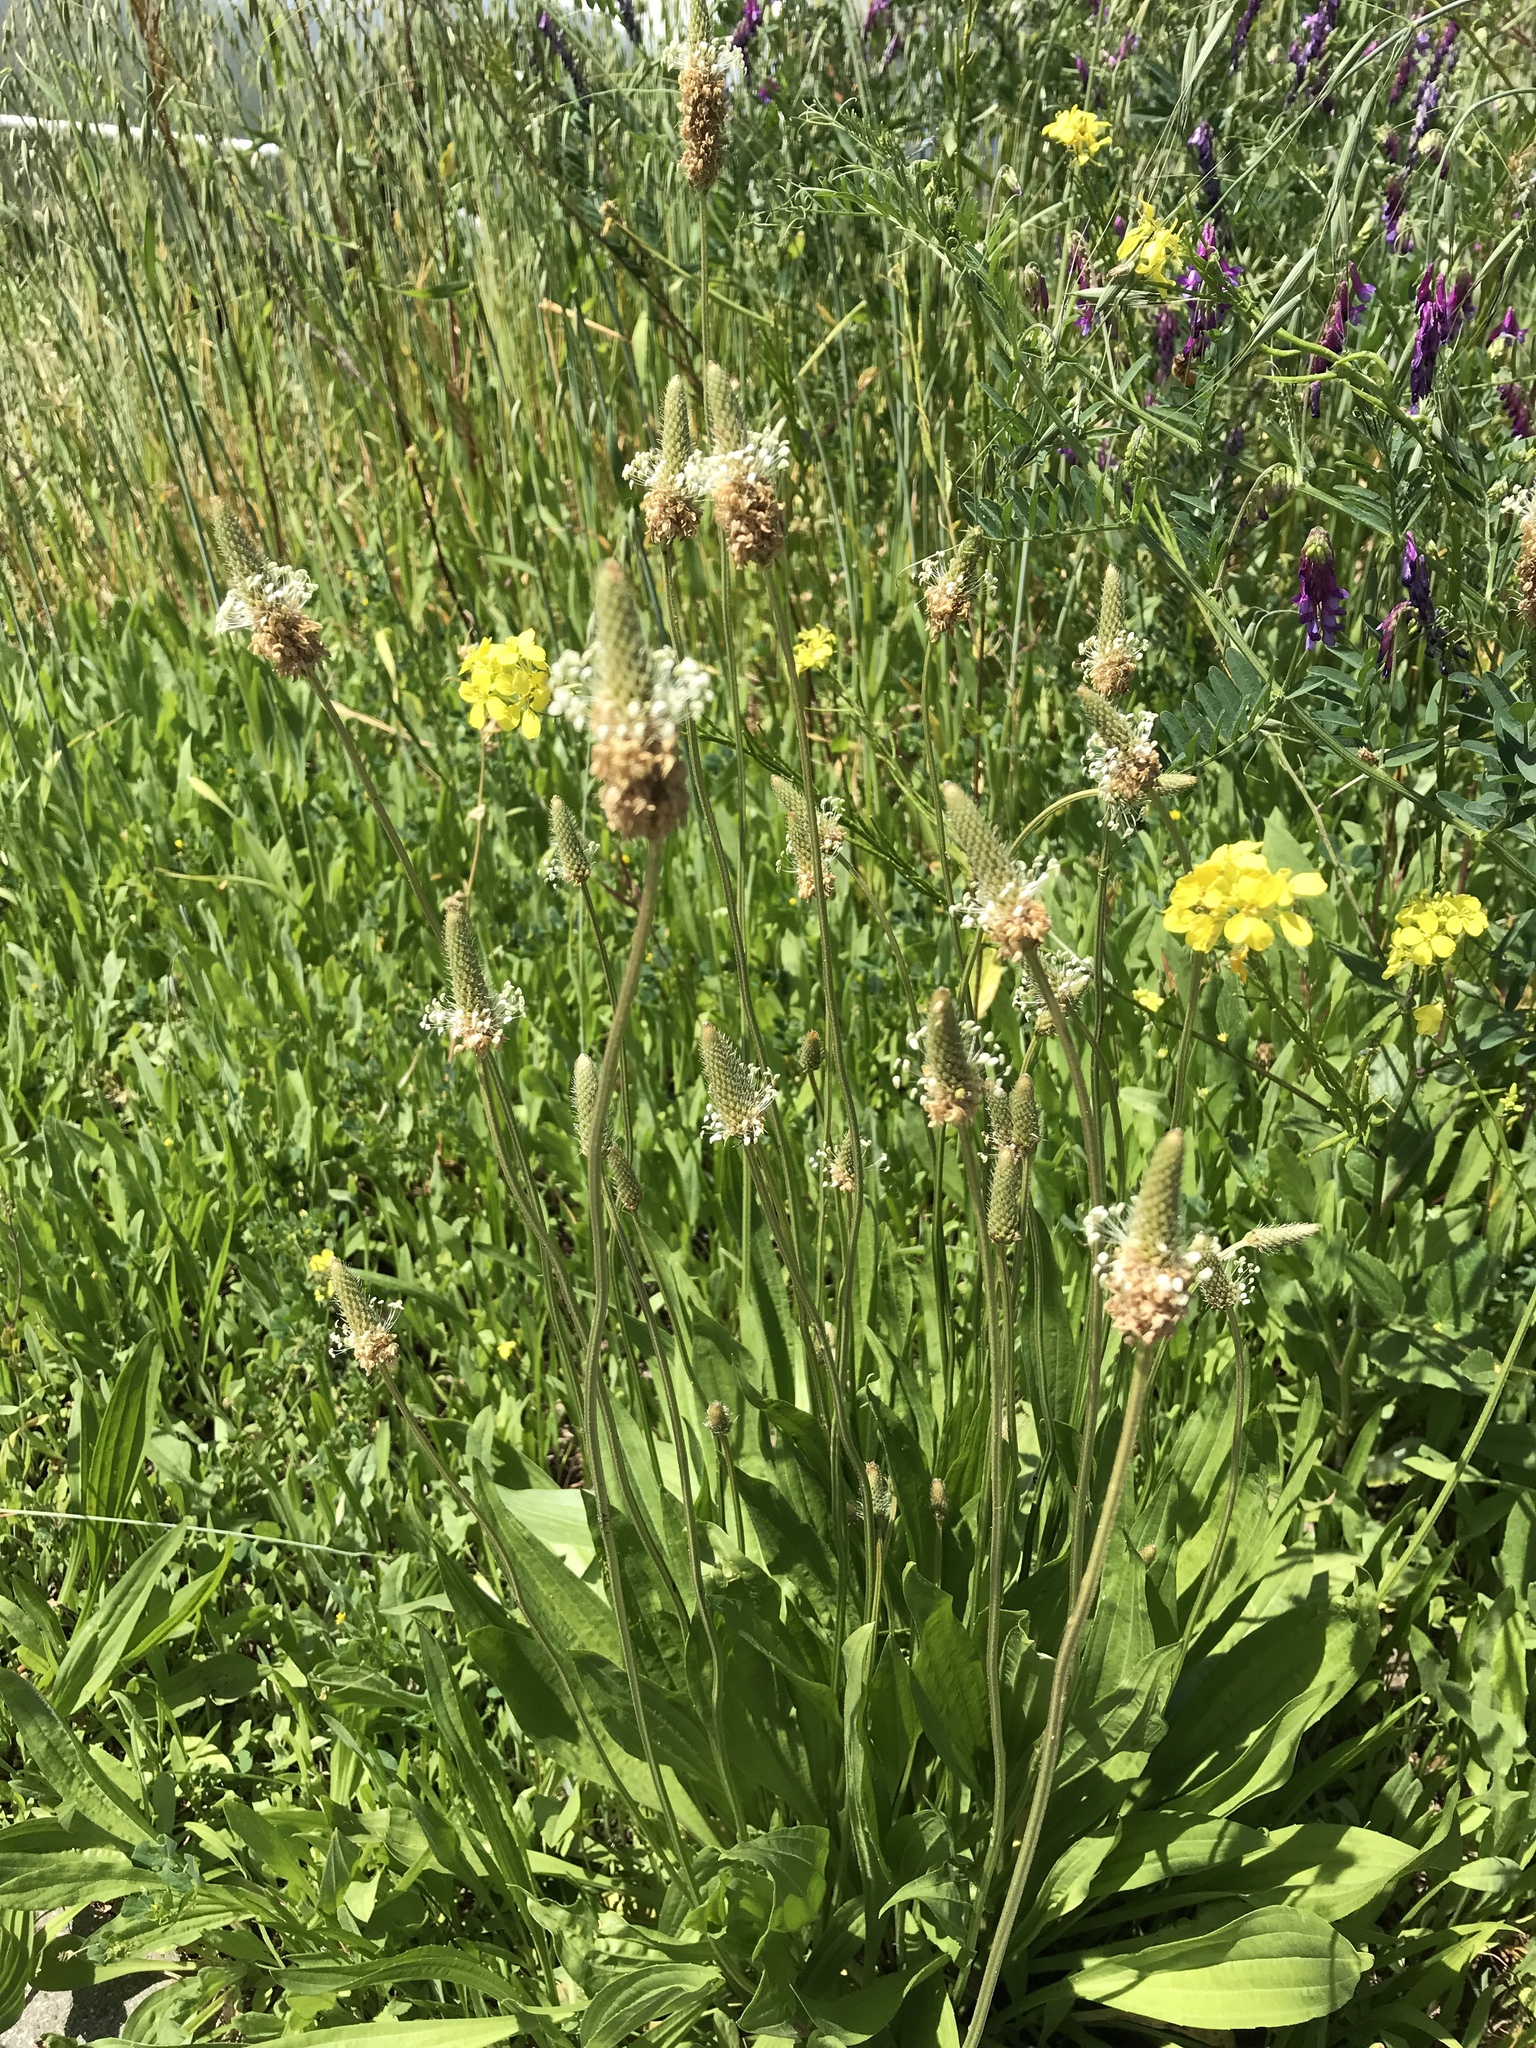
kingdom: Plantae
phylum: Tracheophyta
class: Magnoliopsida
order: Lamiales
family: Plantaginaceae
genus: Plantago
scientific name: Plantago lanceolata
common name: Ribwort plantain
